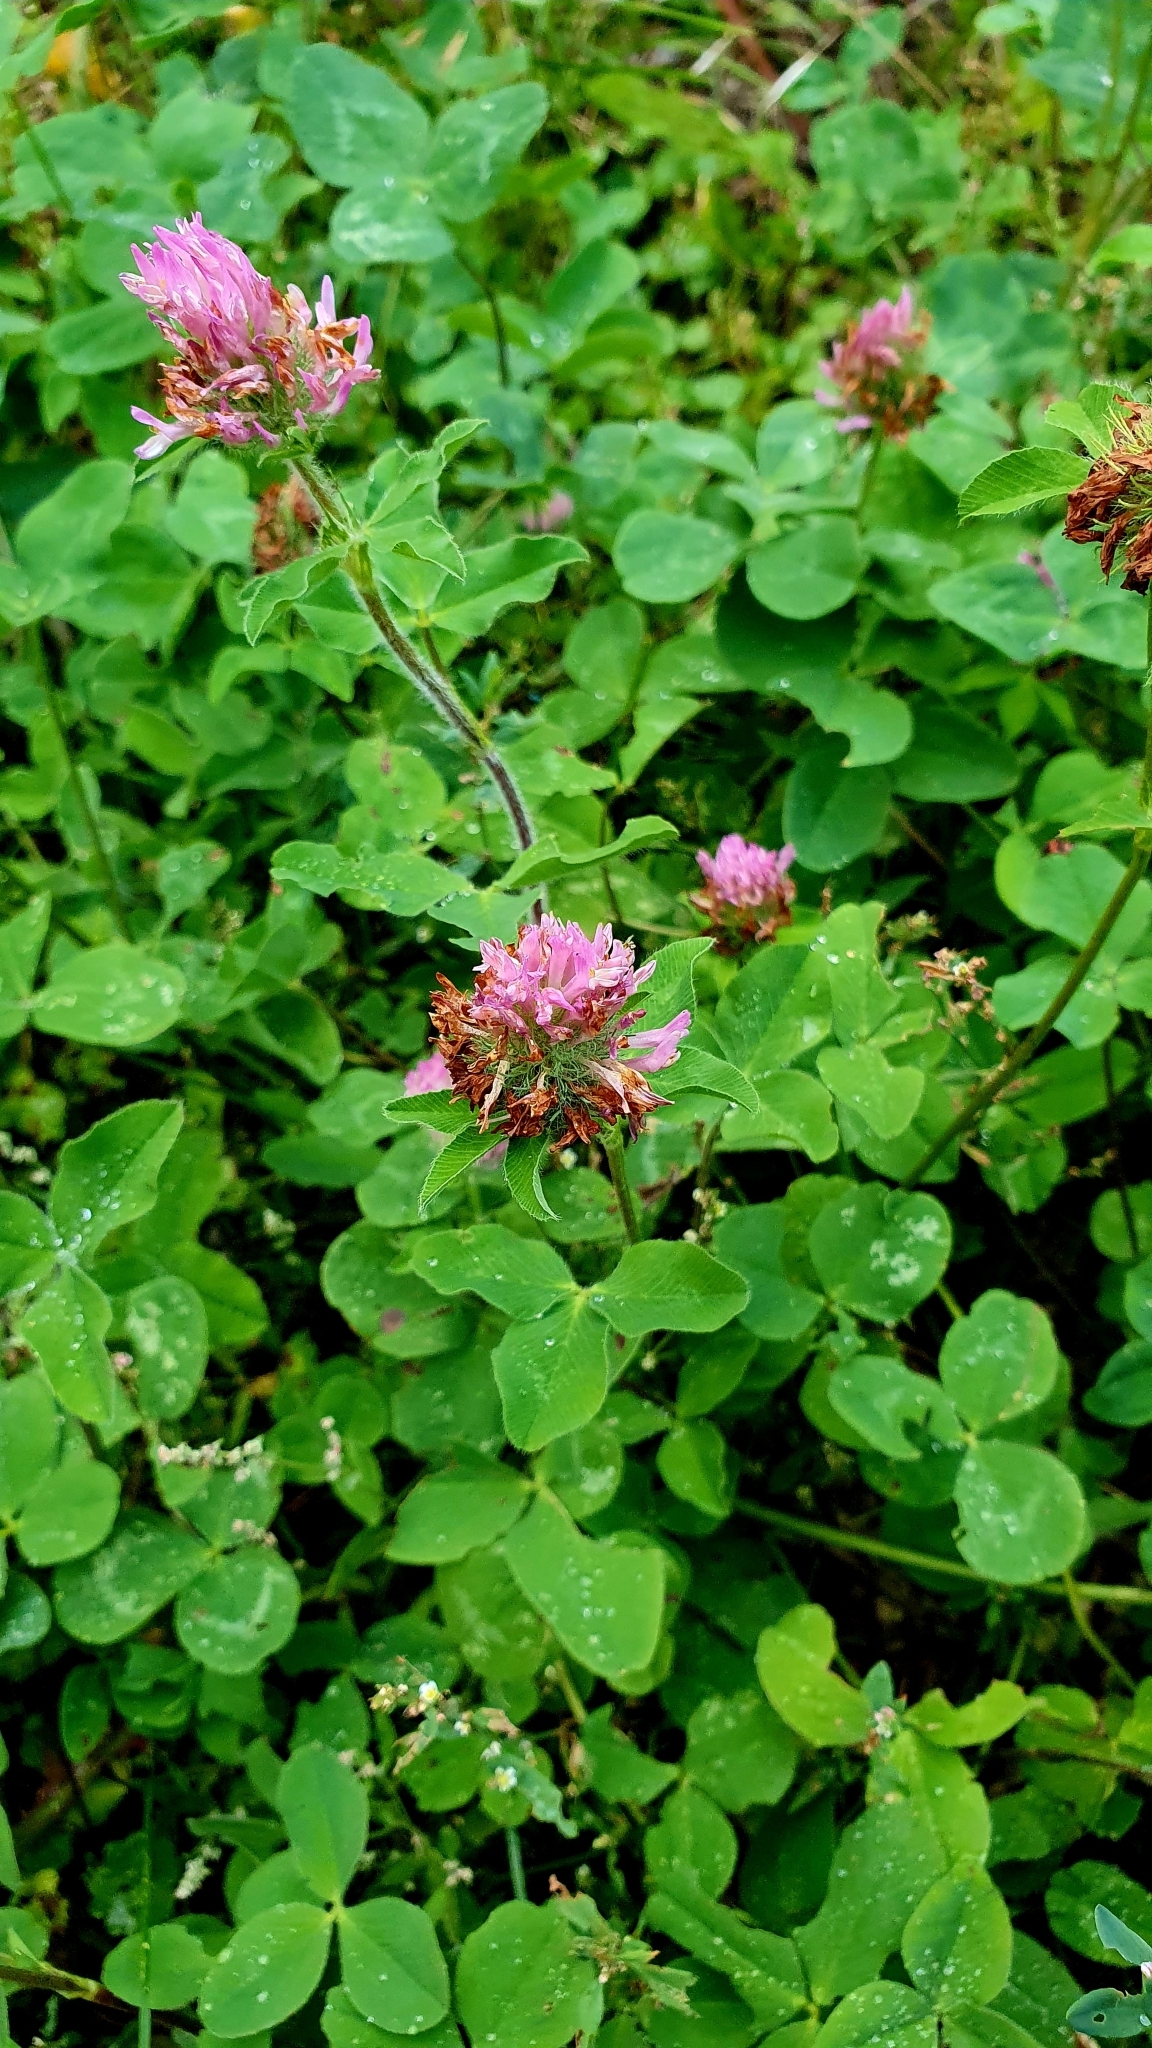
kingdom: Plantae
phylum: Tracheophyta
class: Magnoliopsida
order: Fabales
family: Fabaceae
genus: Trifolium
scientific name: Trifolium pratense
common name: Red clover
